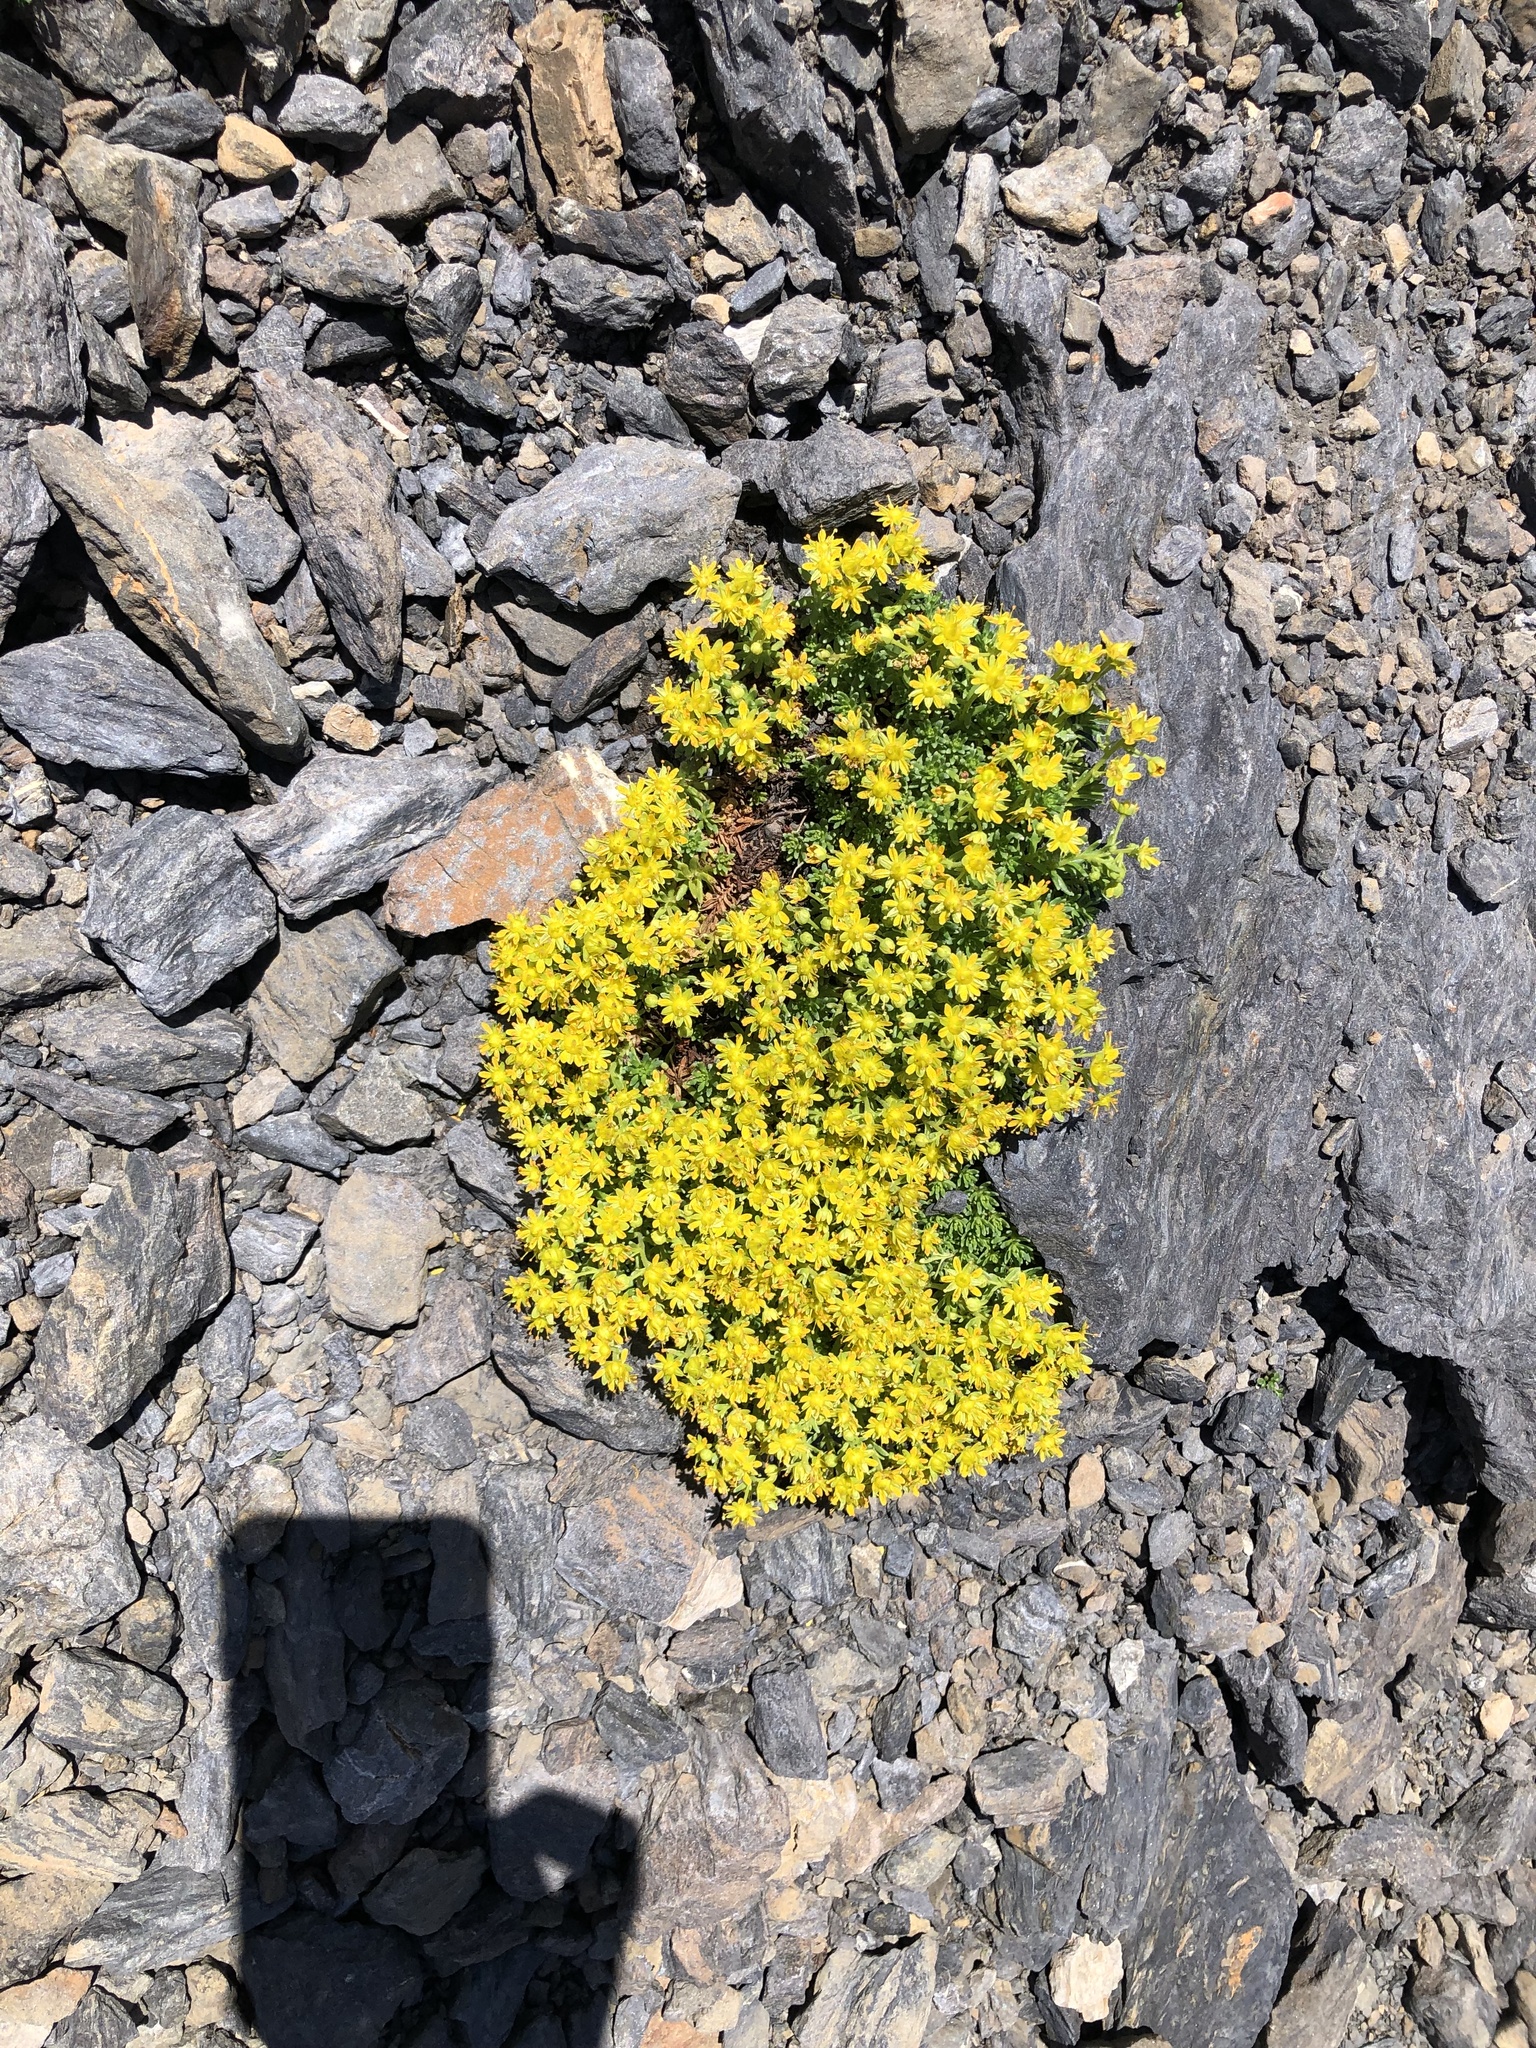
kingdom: Plantae
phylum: Tracheophyta
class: Magnoliopsida
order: Saxifragales
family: Saxifragaceae
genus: Saxifraga
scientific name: Saxifraga aizoides
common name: Yellow mountain saxifrage
